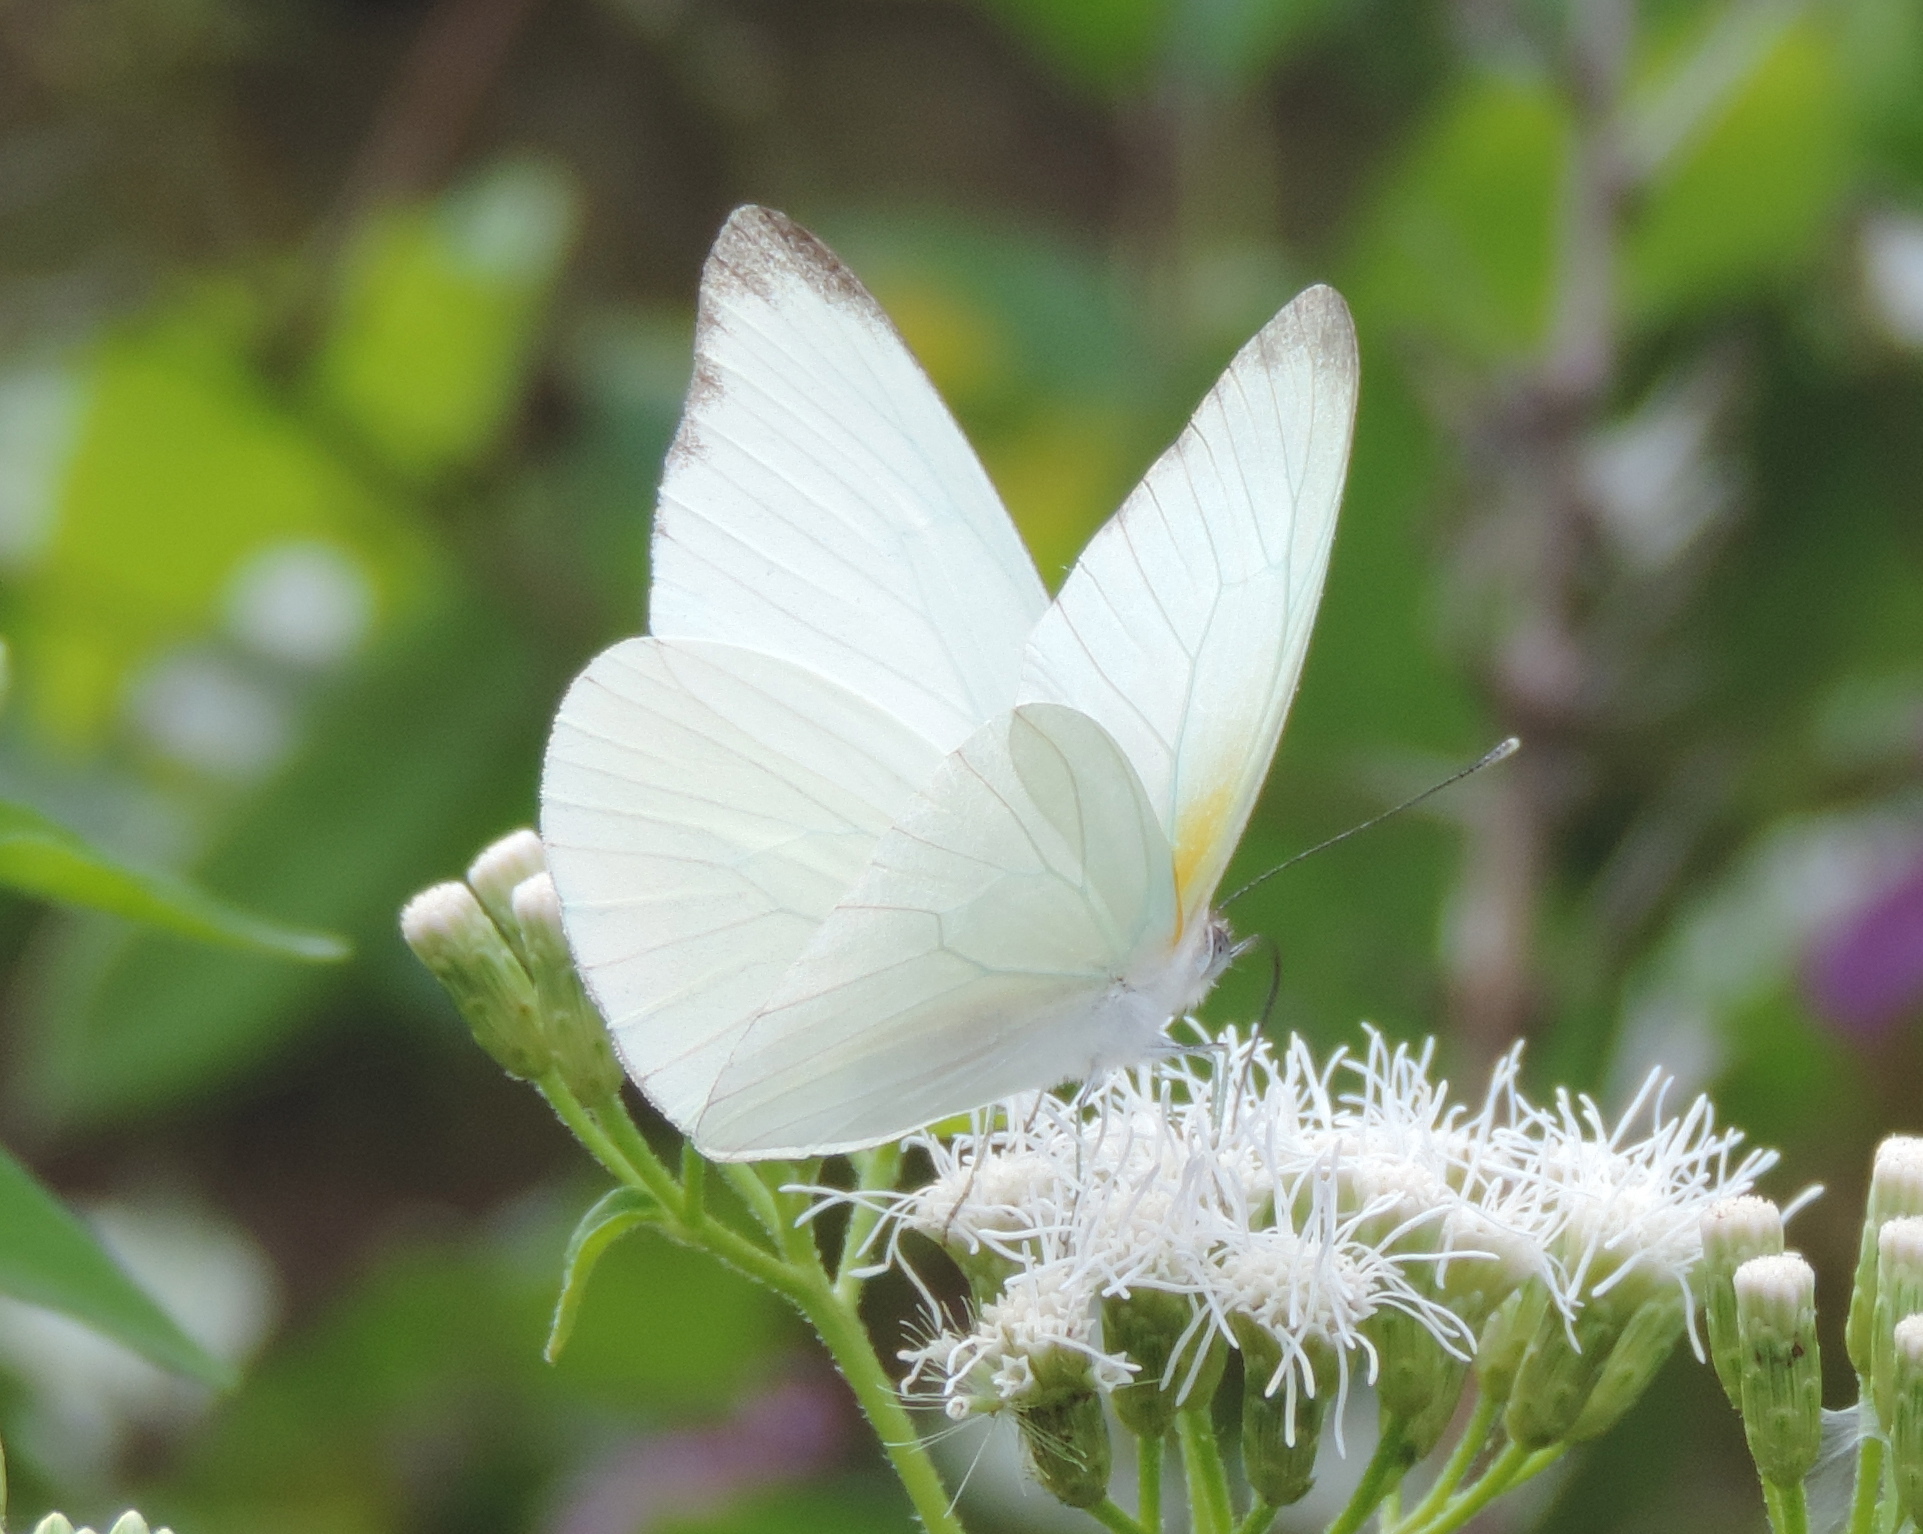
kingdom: Animalia
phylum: Arthropoda
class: Insecta
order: Lepidoptera
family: Pieridae
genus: Glutophrissa
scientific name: Glutophrissa drusilla
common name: Florida white
